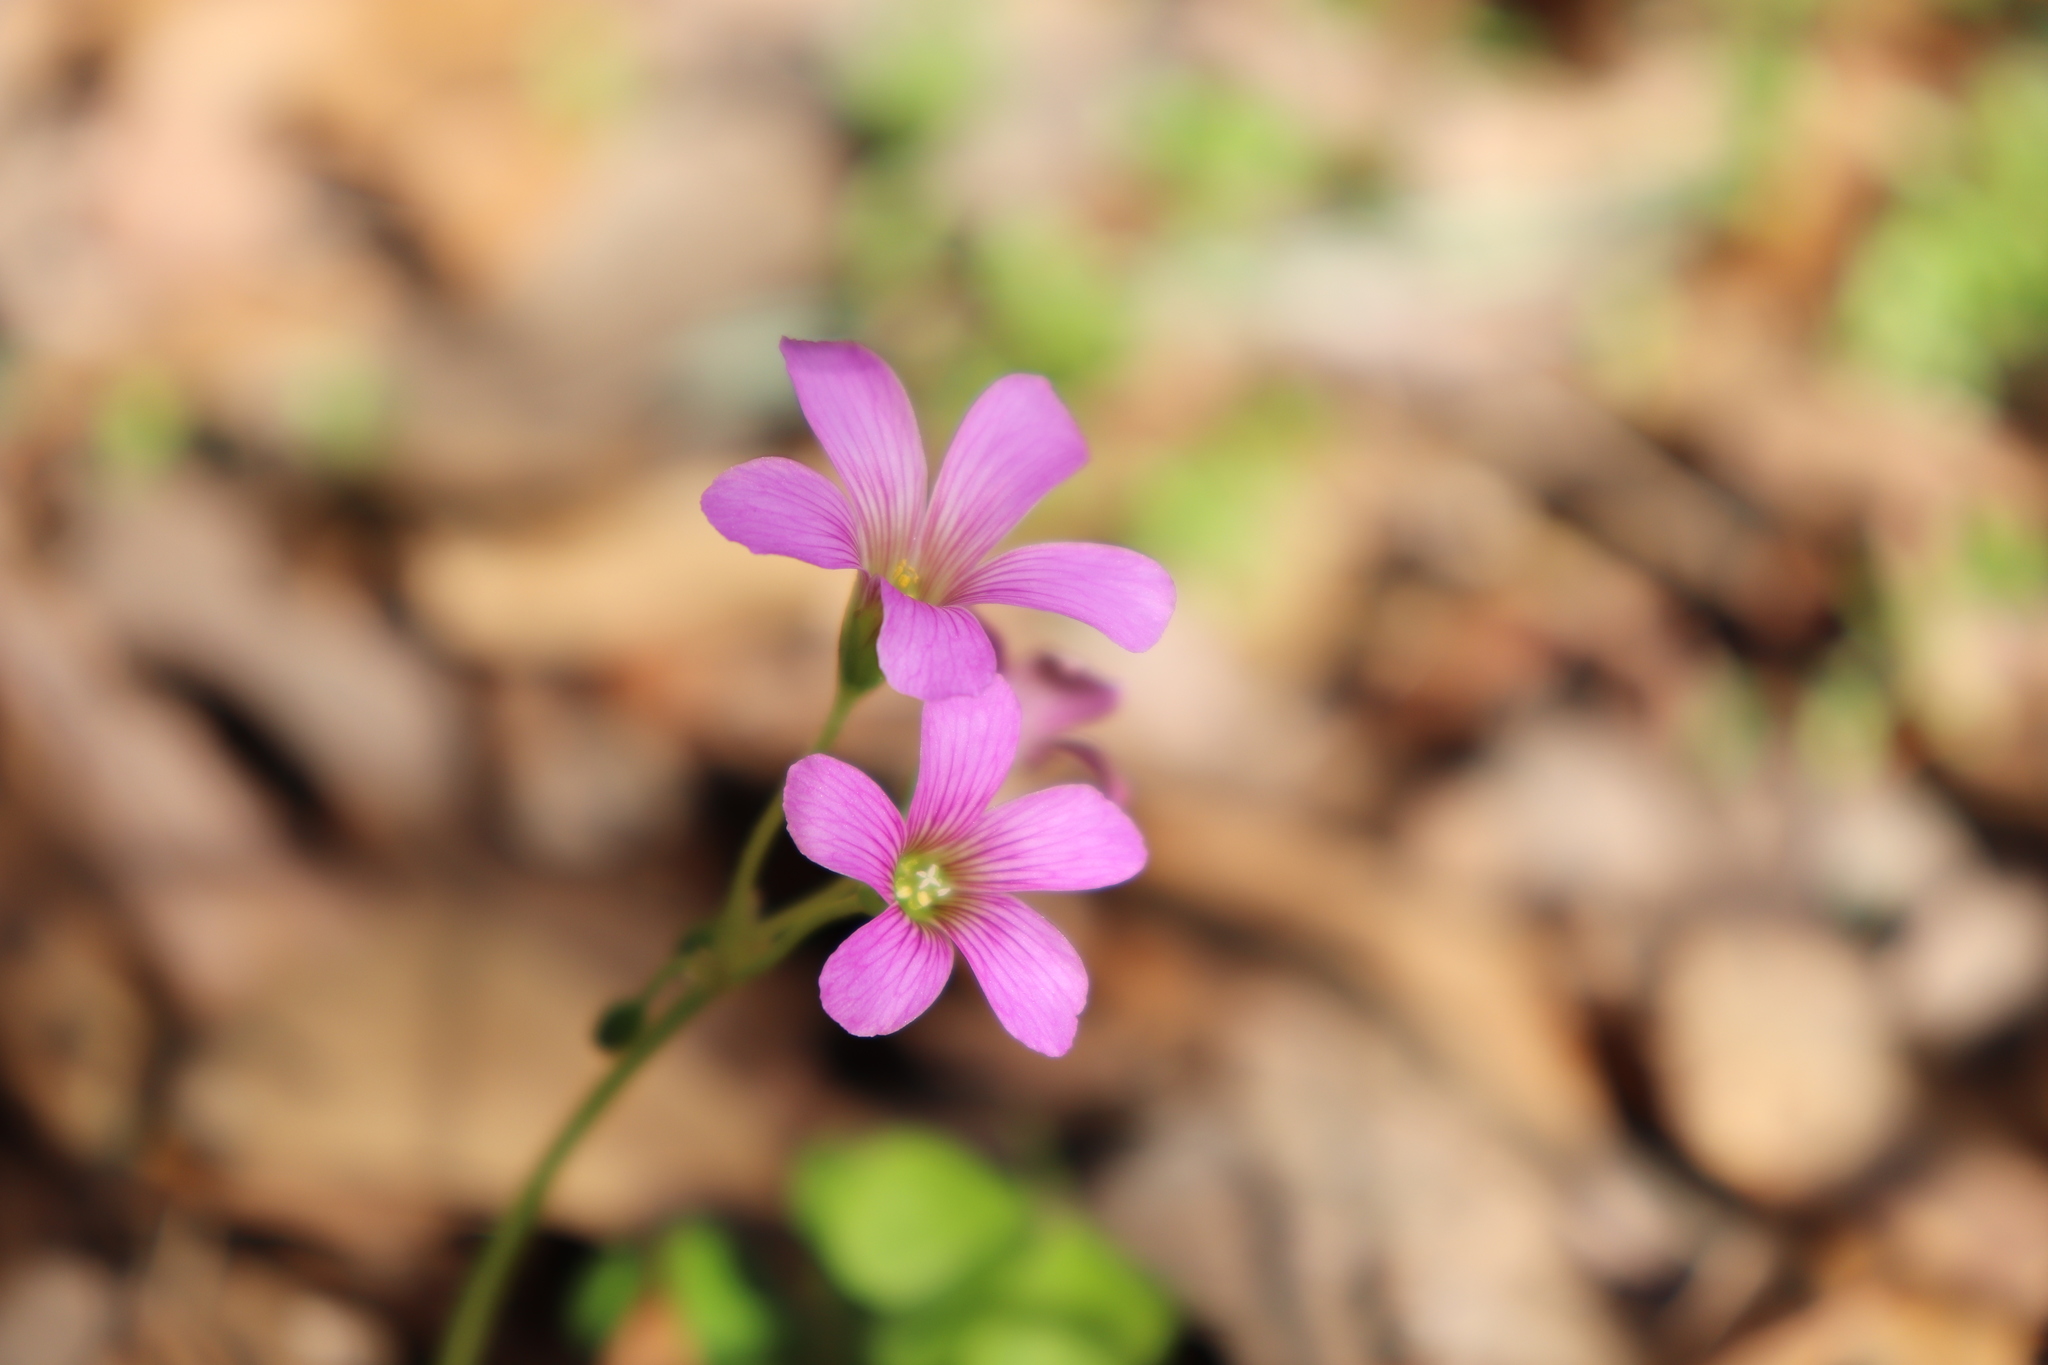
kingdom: Plantae
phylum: Tracheophyta
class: Magnoliopsida
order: Oxalidales
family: Oxalidaceae
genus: Oxalis
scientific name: Oxalis debilis
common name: Large-flowered pink-sorrel
